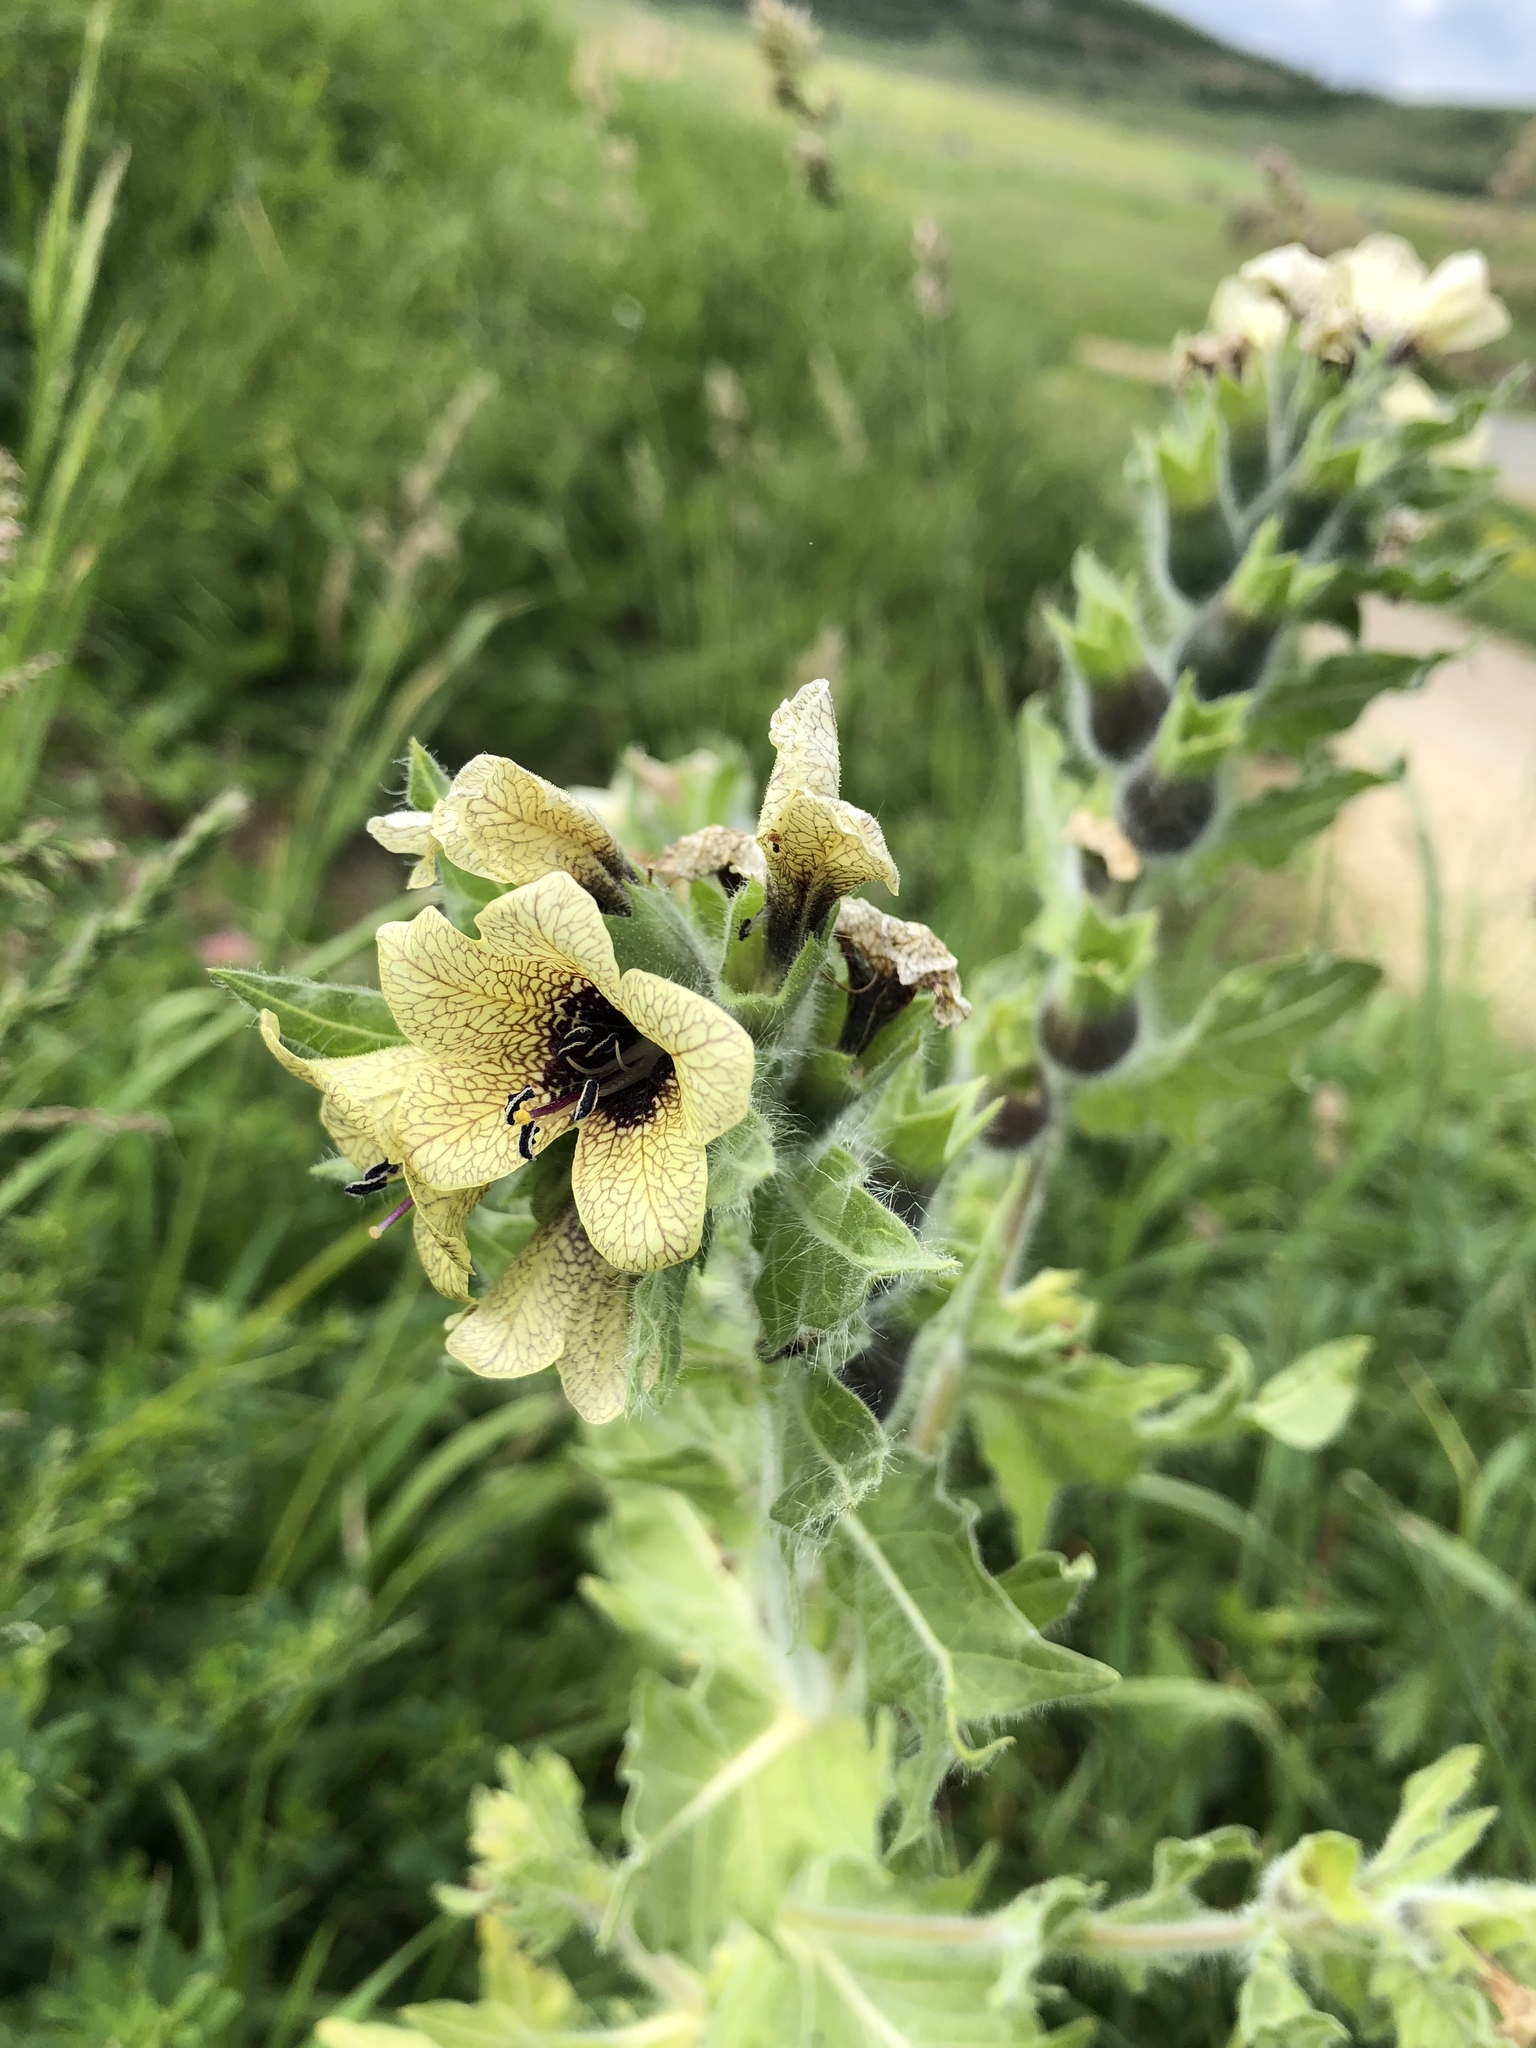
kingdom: Plantae
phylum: Tracheophyta
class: Magnoliopsida
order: Solanales
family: Solanaceae
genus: Hyoscyamus
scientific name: Hyoscyamus niger
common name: Henbane
